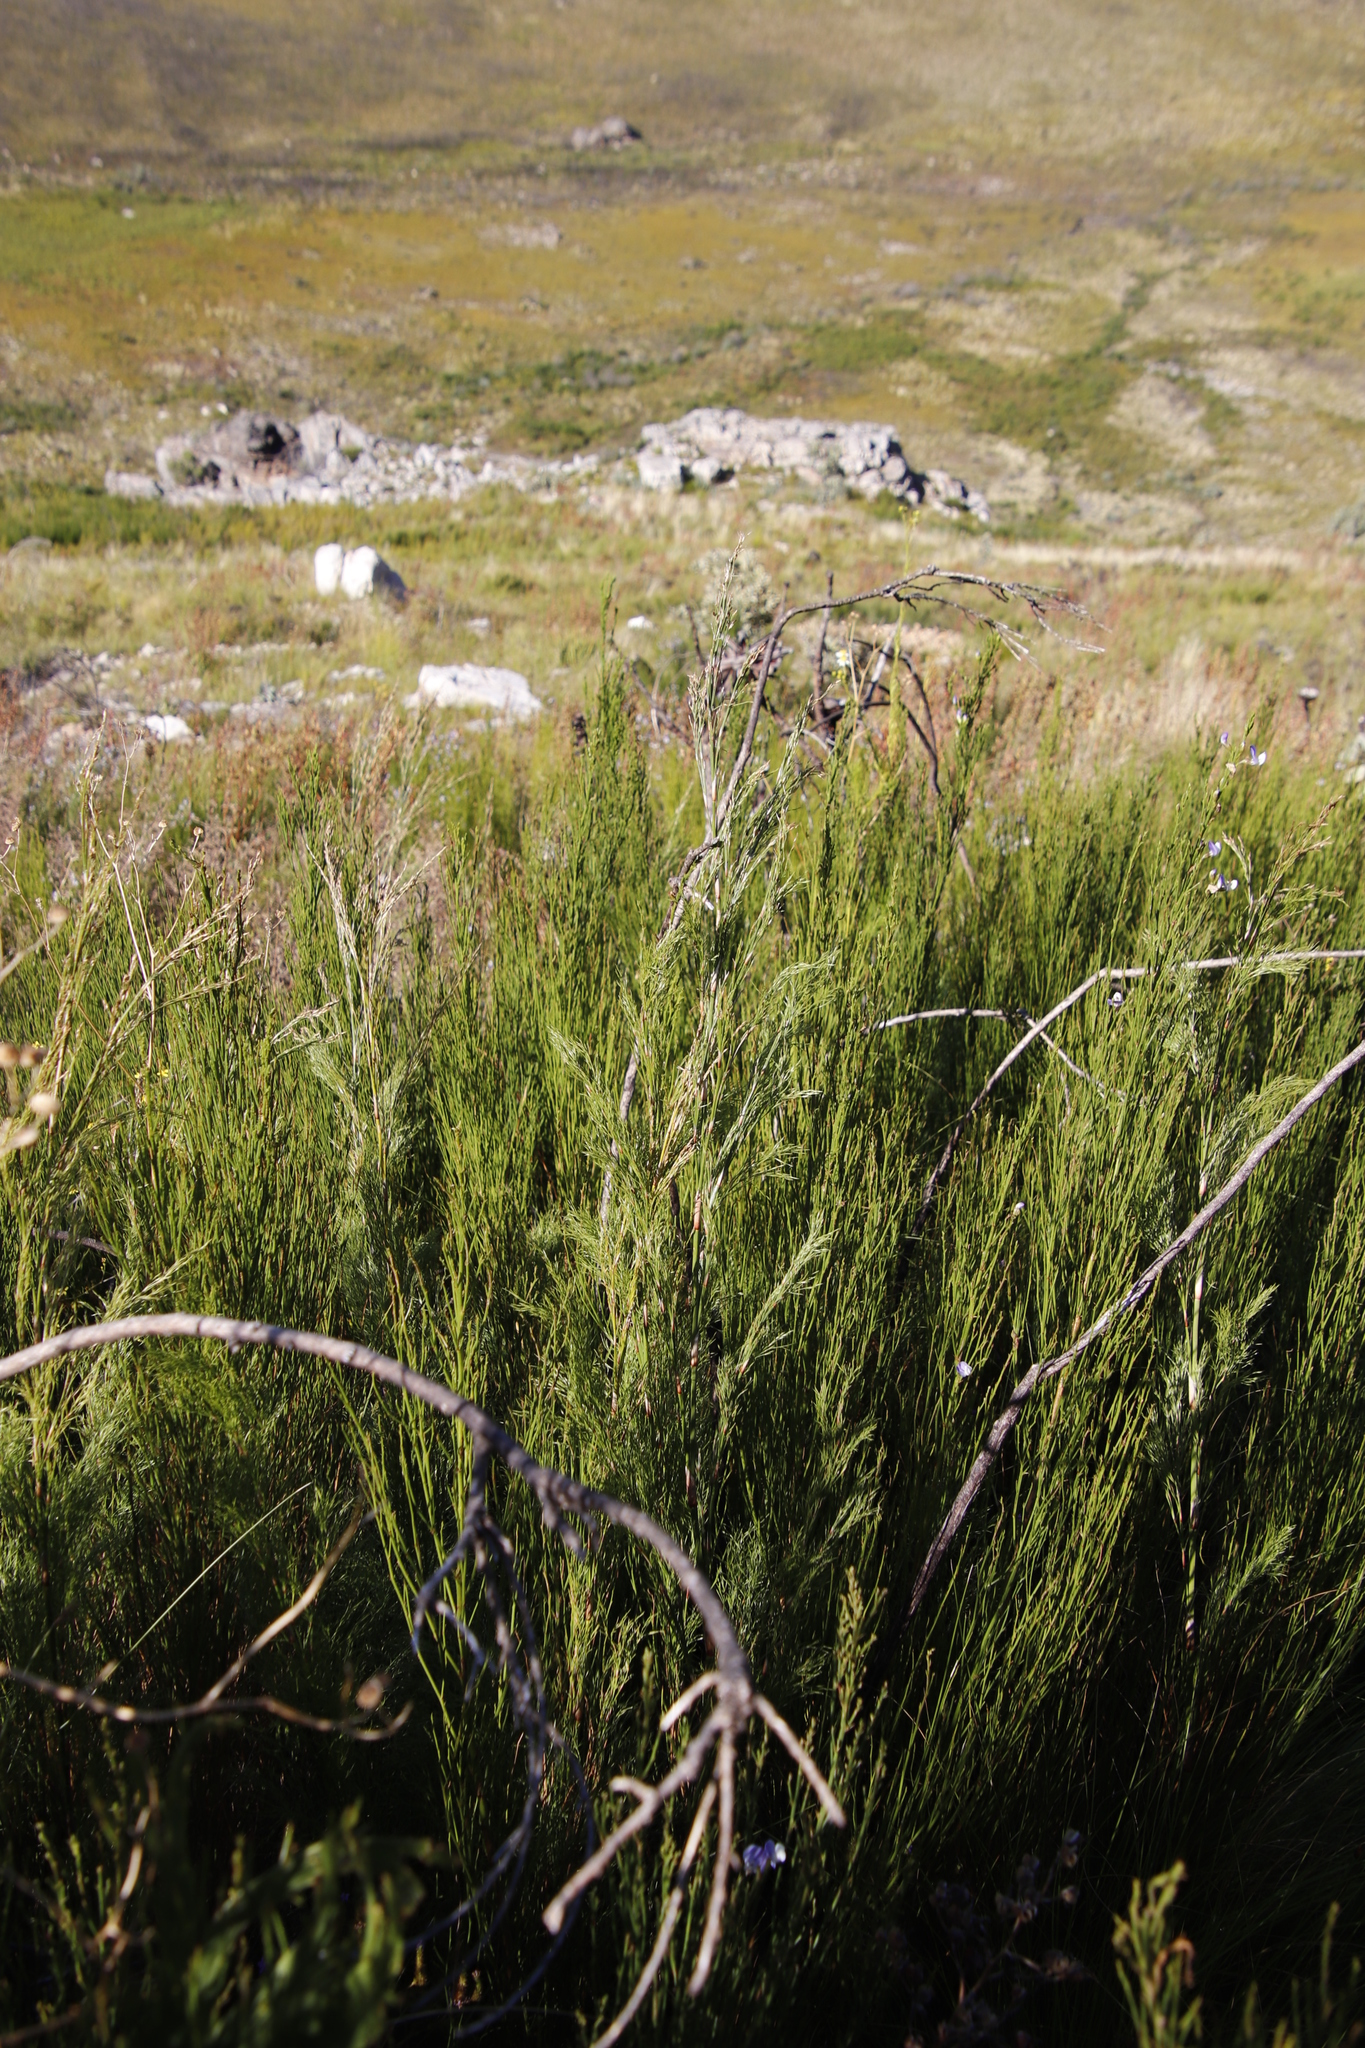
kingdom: Plantae
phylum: Tracheophyta
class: Liliopsida
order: Poales
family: Restionaceae
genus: Restio
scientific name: Restio paniculatus
